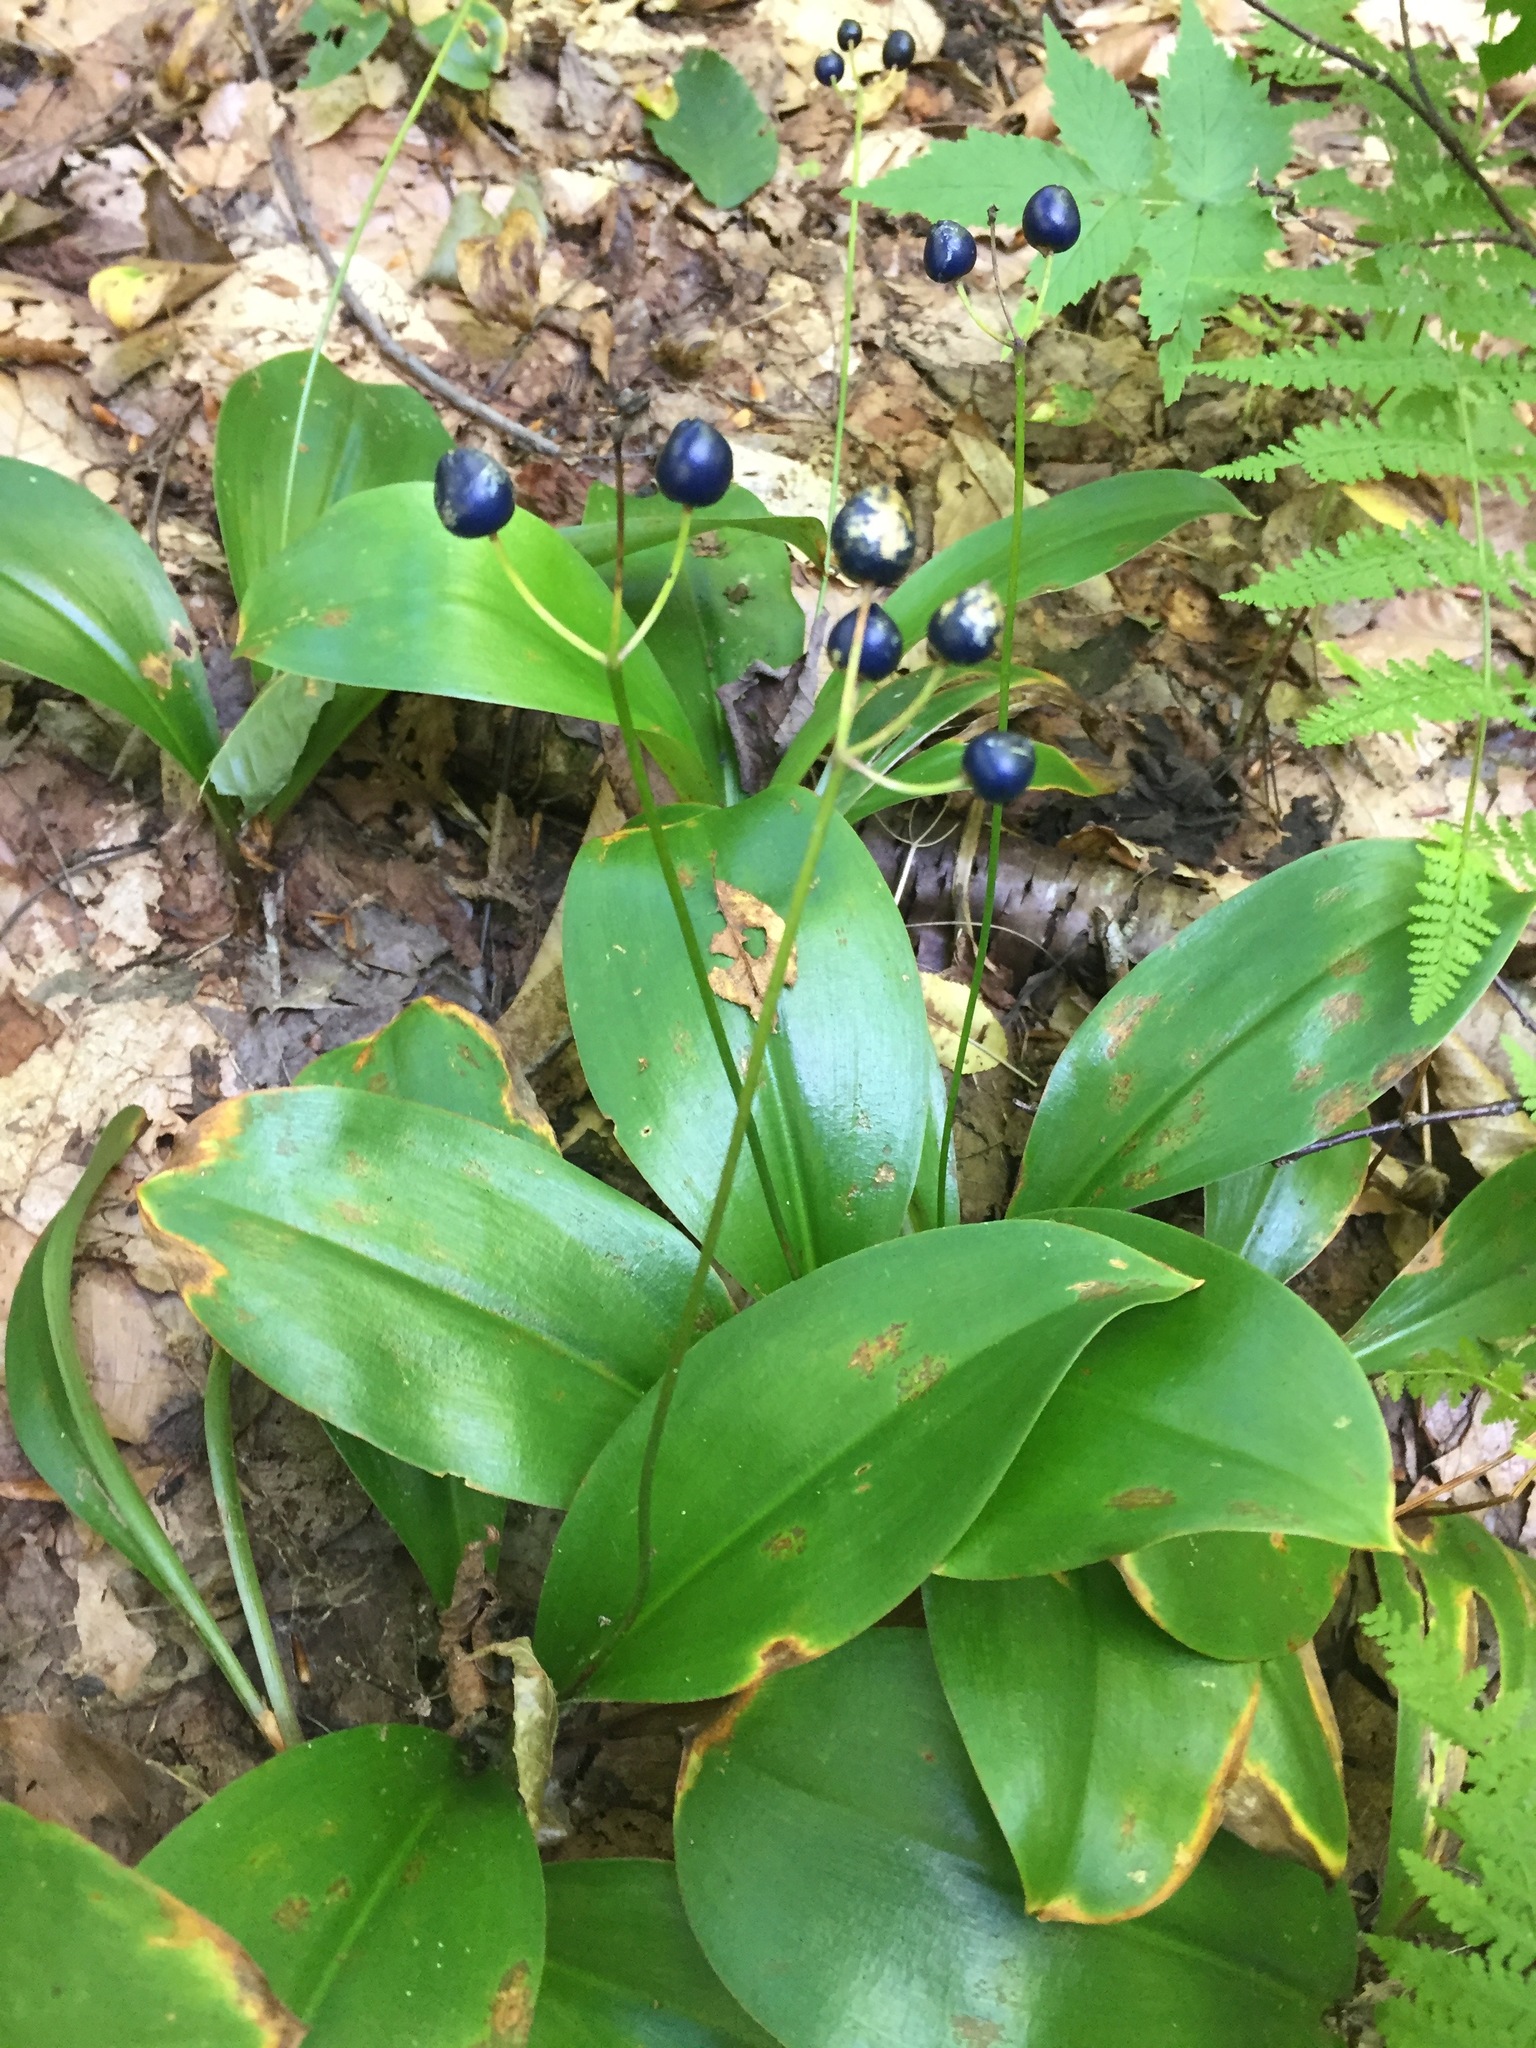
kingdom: Plantae
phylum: Tracheophyta
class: Liliopsida
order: Liliales
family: Liliaceae
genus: Clintonia
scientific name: Clintonia borealis
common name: Yellow clintonia
